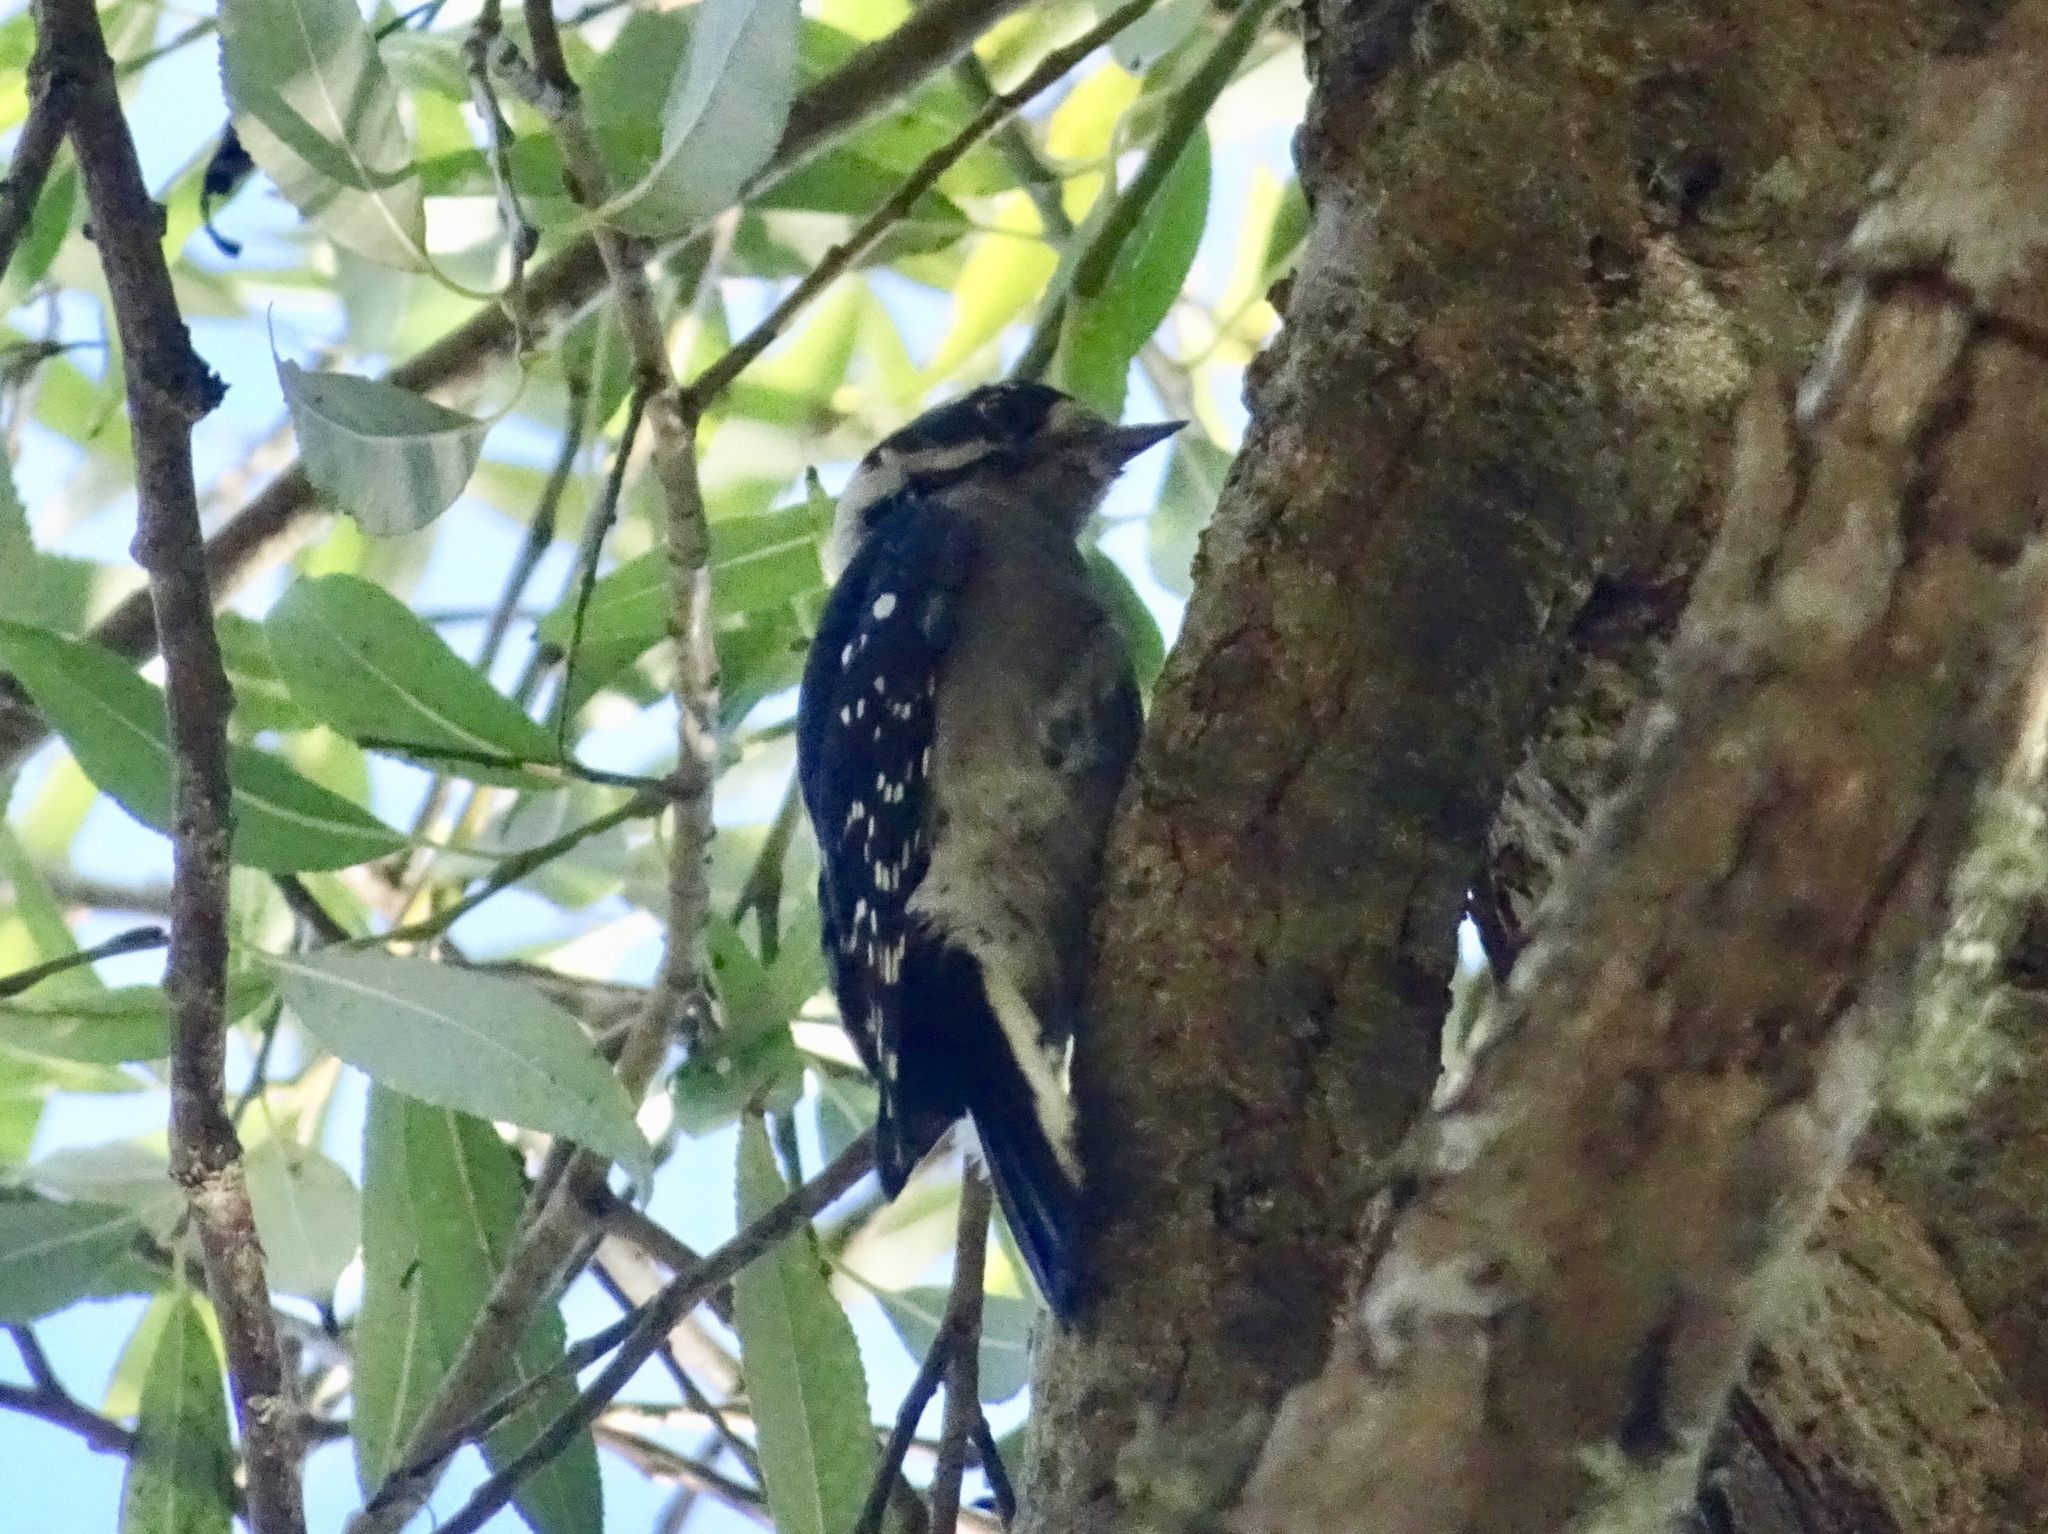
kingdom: Animalia
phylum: Chordata
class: Aves
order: Piciformes
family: Picidae
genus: Dryobates
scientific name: Dryobates pubescens
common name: Downy woodpecker
